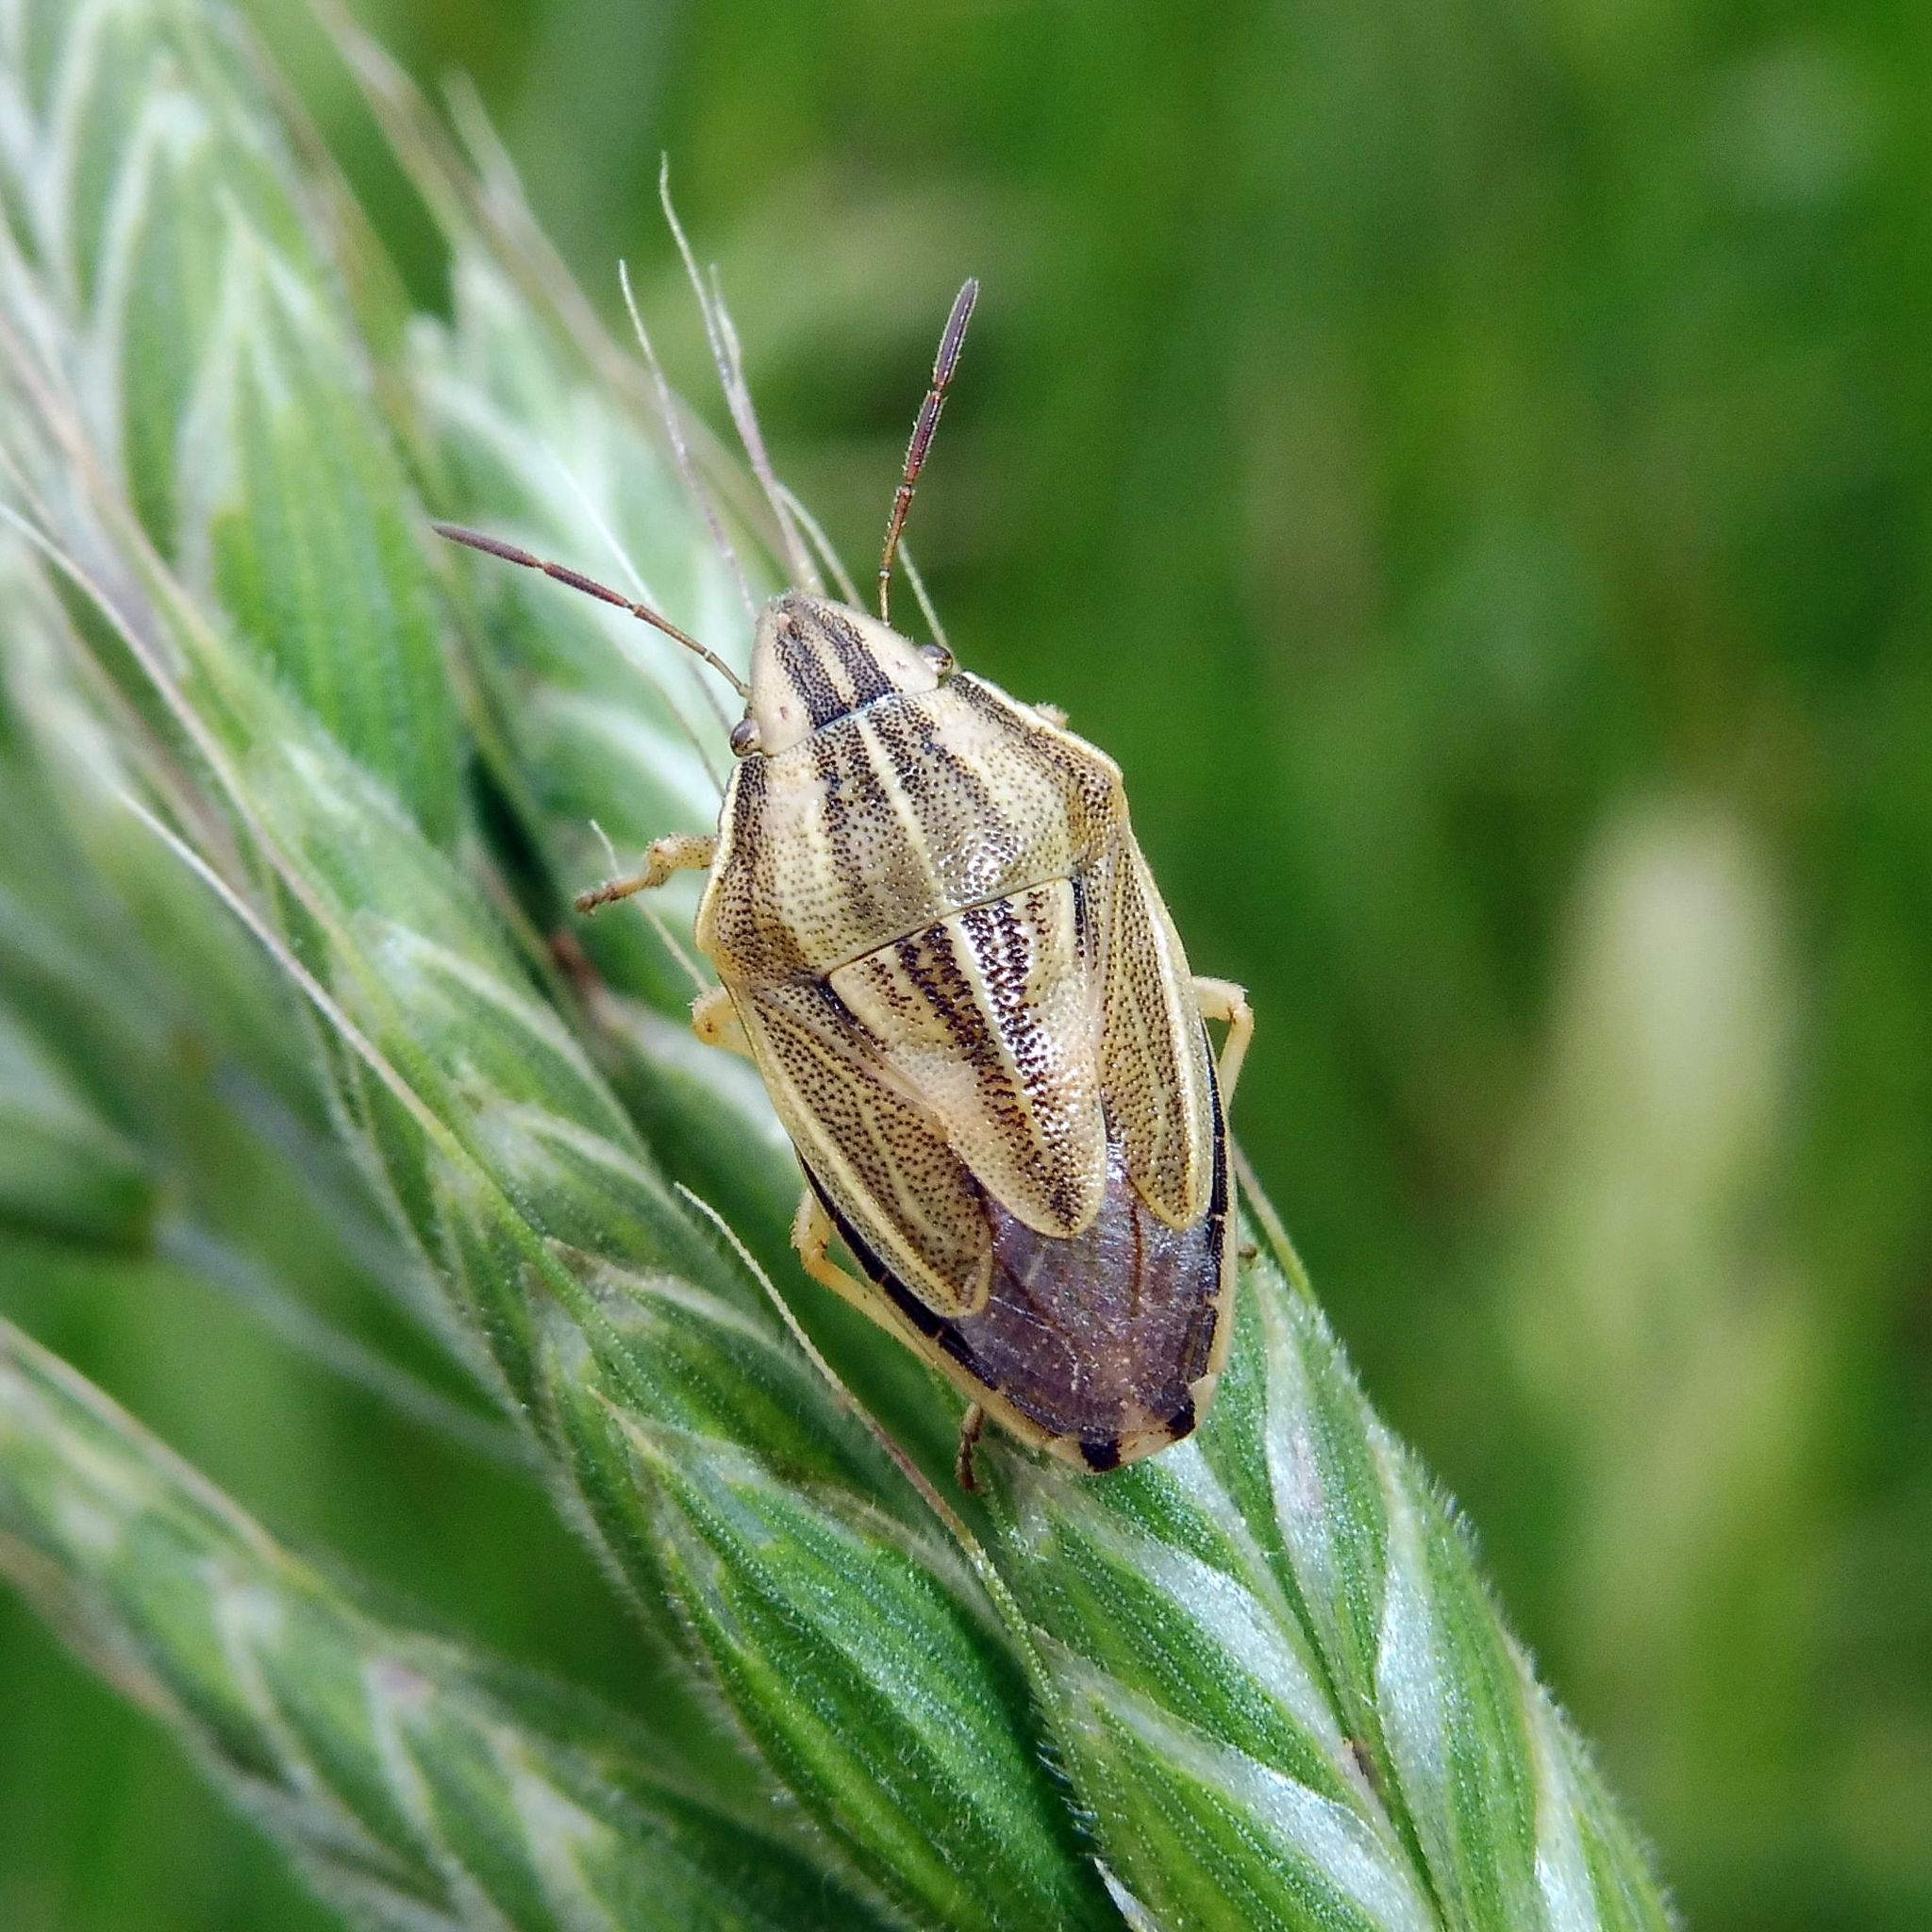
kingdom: Animalia
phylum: Arthropoda
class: Insecta
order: Hemiptera
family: Pentatomidae
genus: Aelia
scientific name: Aelia acuminata
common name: Bishop's mitre
